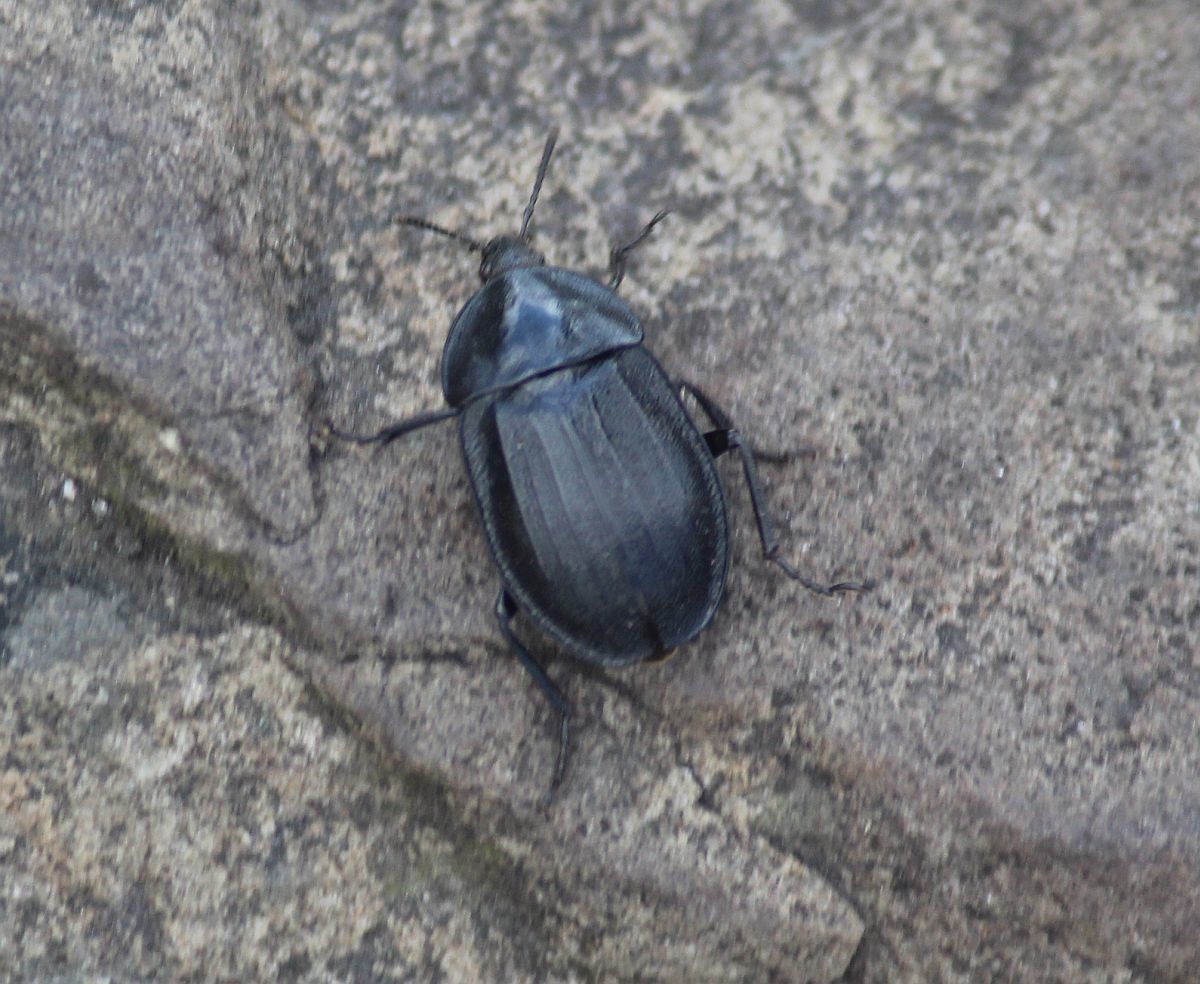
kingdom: Animalia
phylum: Arthropoda
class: Insecta
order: Coleoptera
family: Staphylinidae
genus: Silpha
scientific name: Silpha atrata
